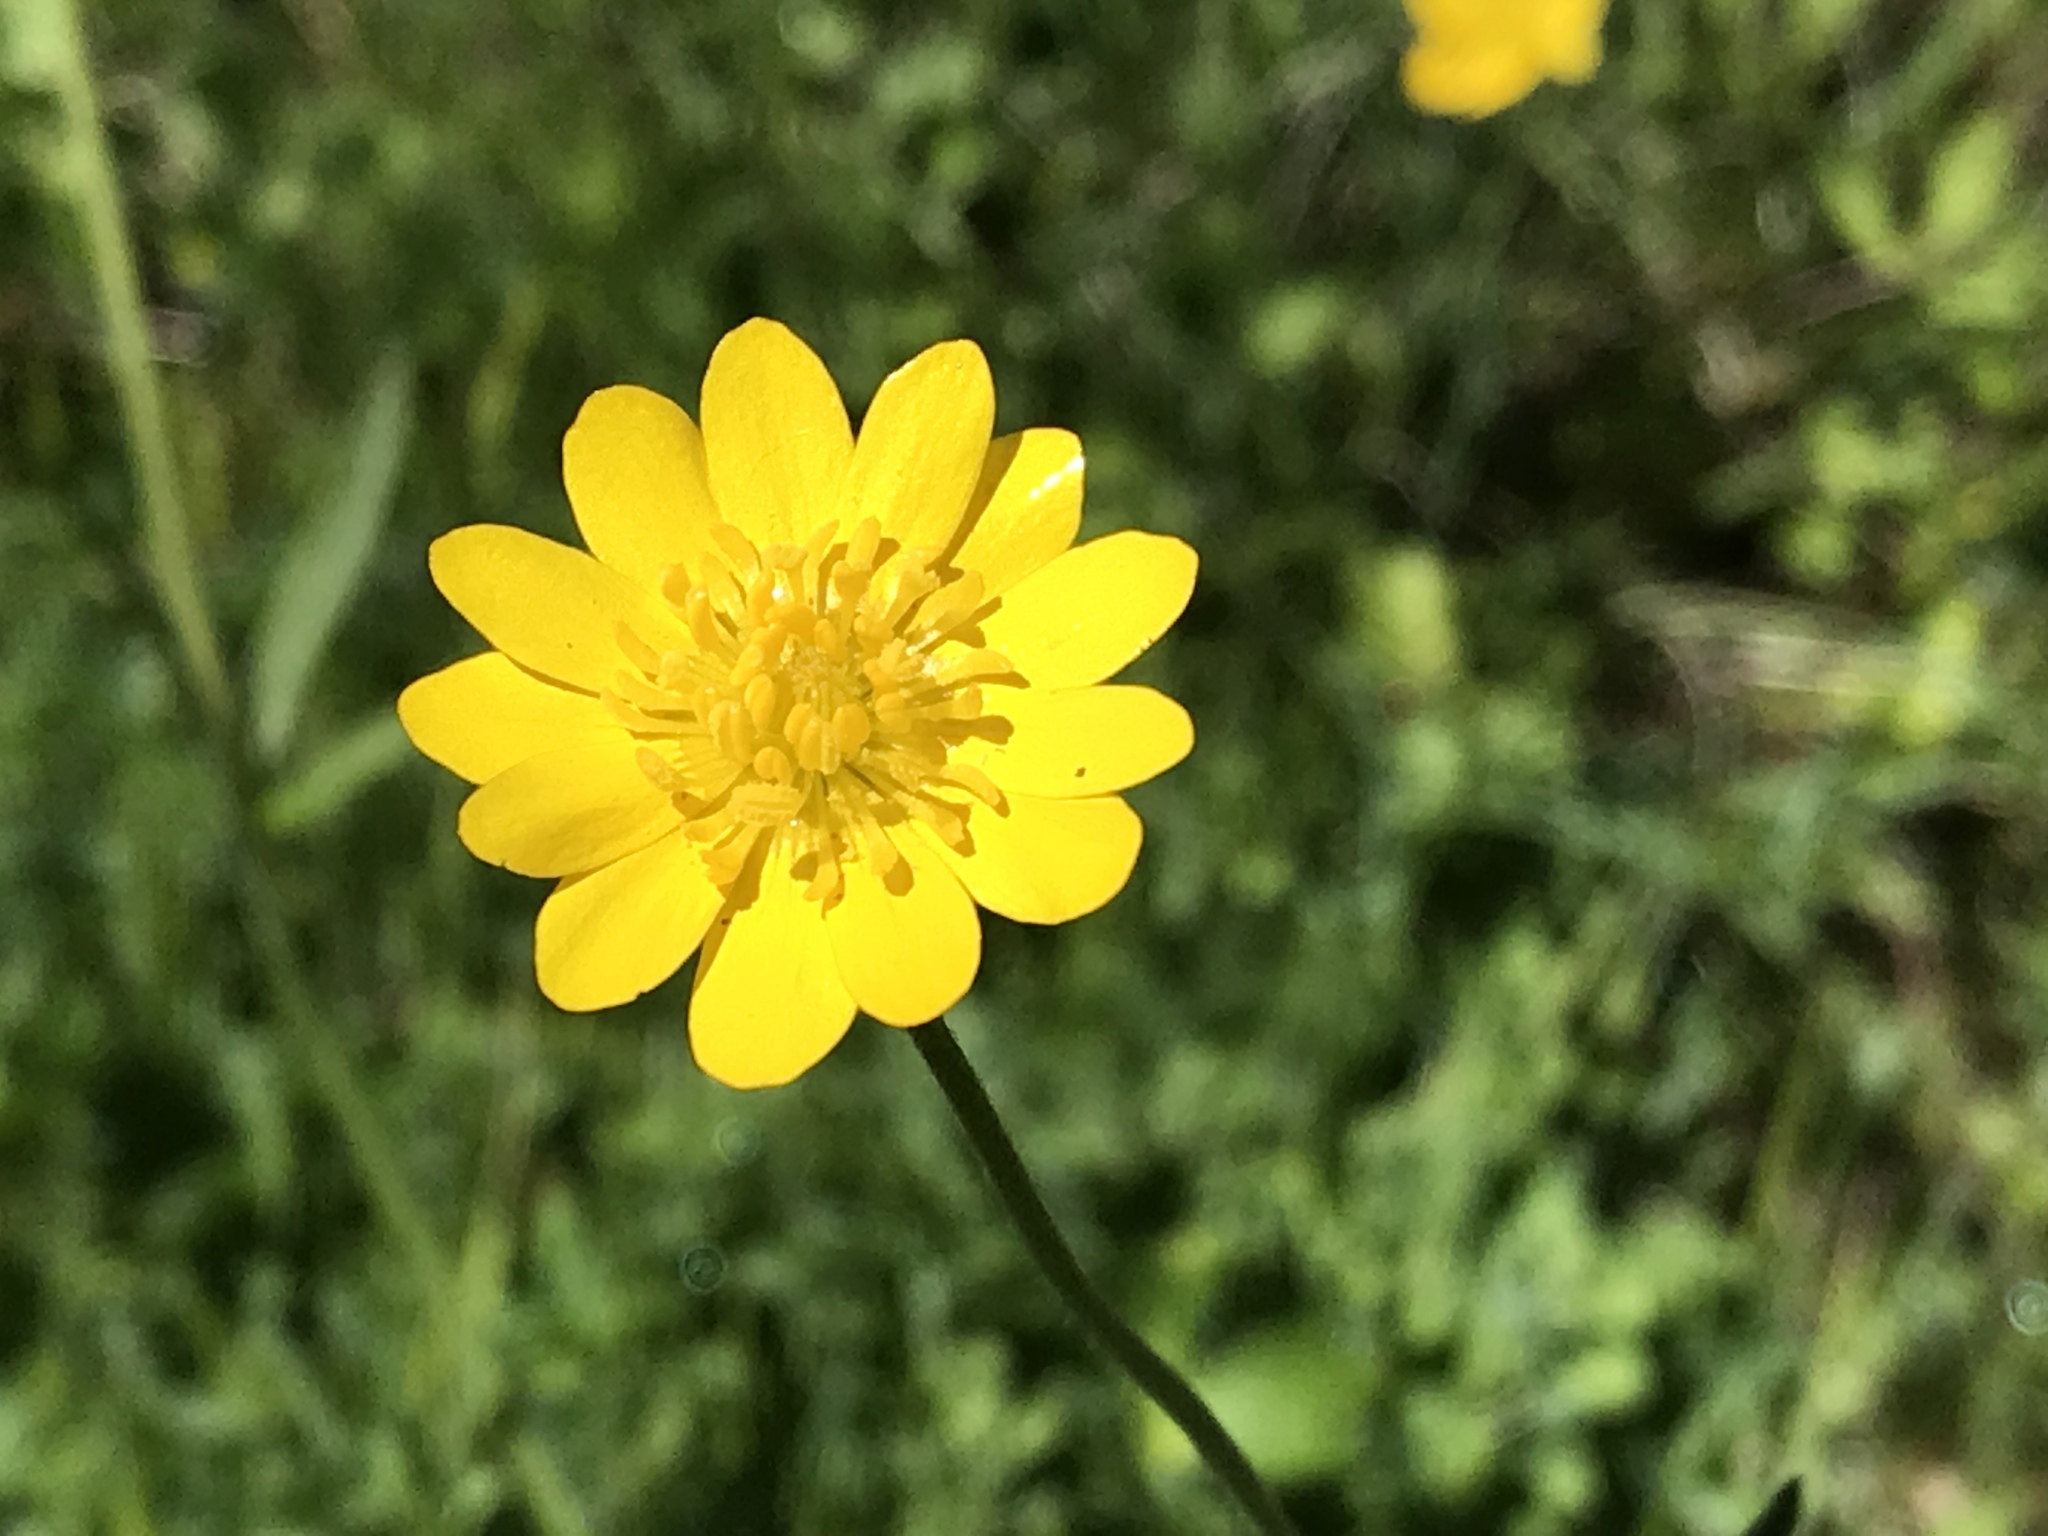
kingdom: Plantae
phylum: Tracheophyta
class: Magnoliopsida
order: Ranunculales
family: Ranunculaceae
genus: Ranunculus
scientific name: Ranunculus californicus
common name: California buttercup
